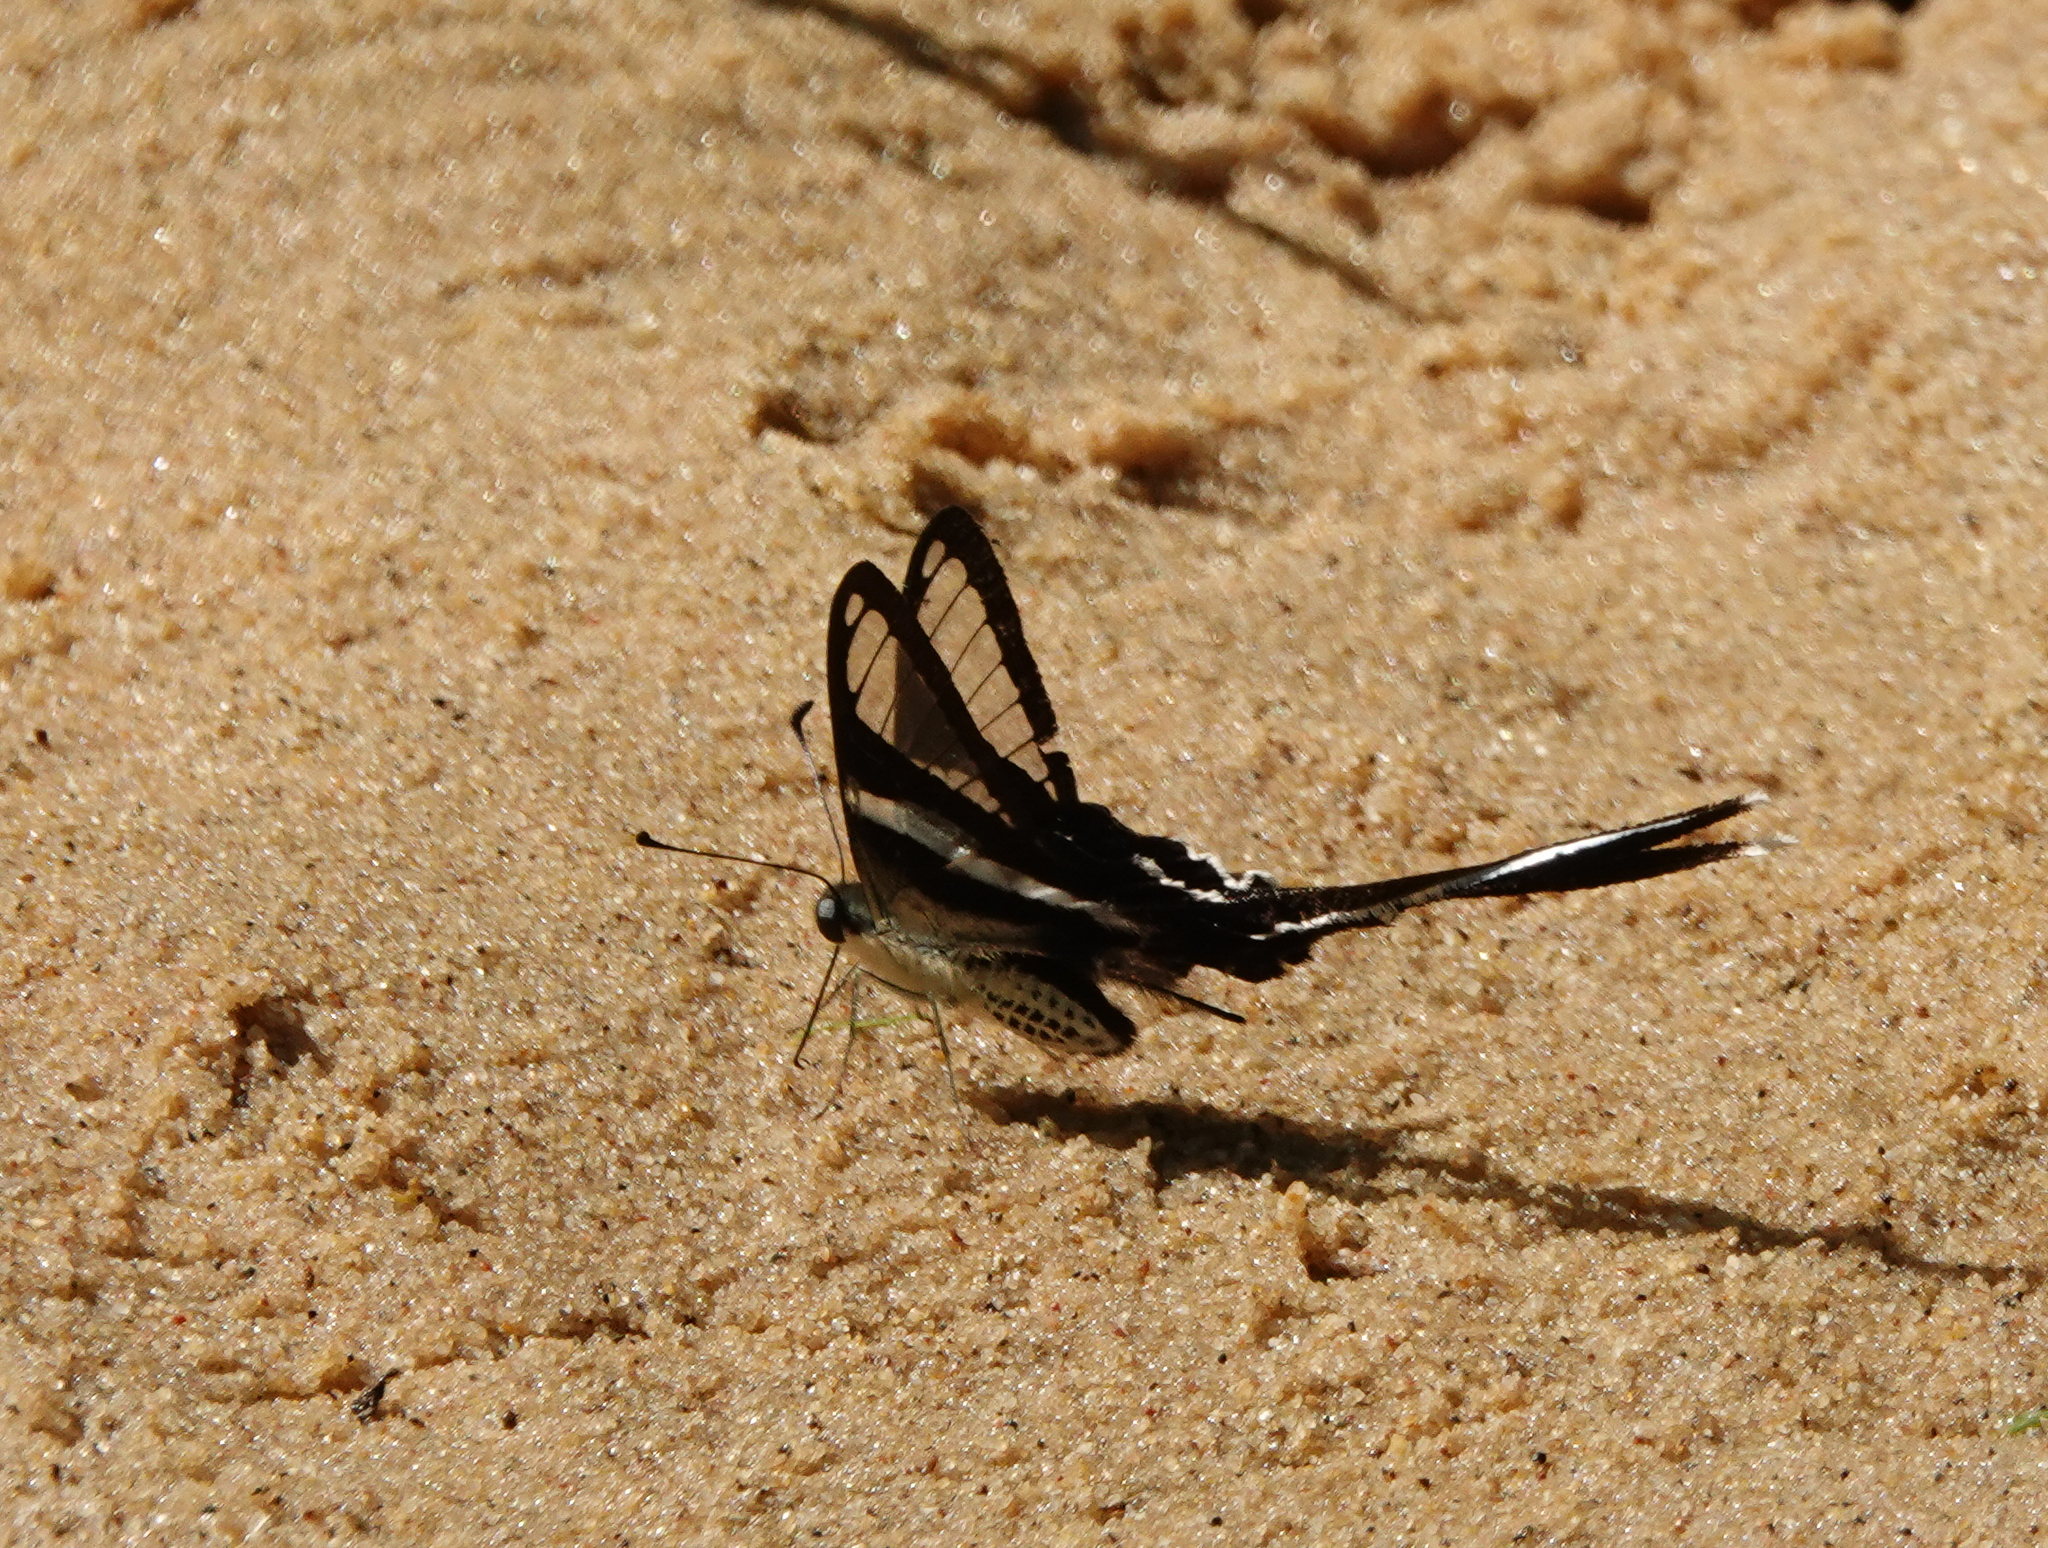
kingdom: Animalia
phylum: Arthropoda
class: Insecta
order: Lepidoptera
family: Papilionidae
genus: Lamproptera
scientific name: Lamproptera curius
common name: White dragontail
